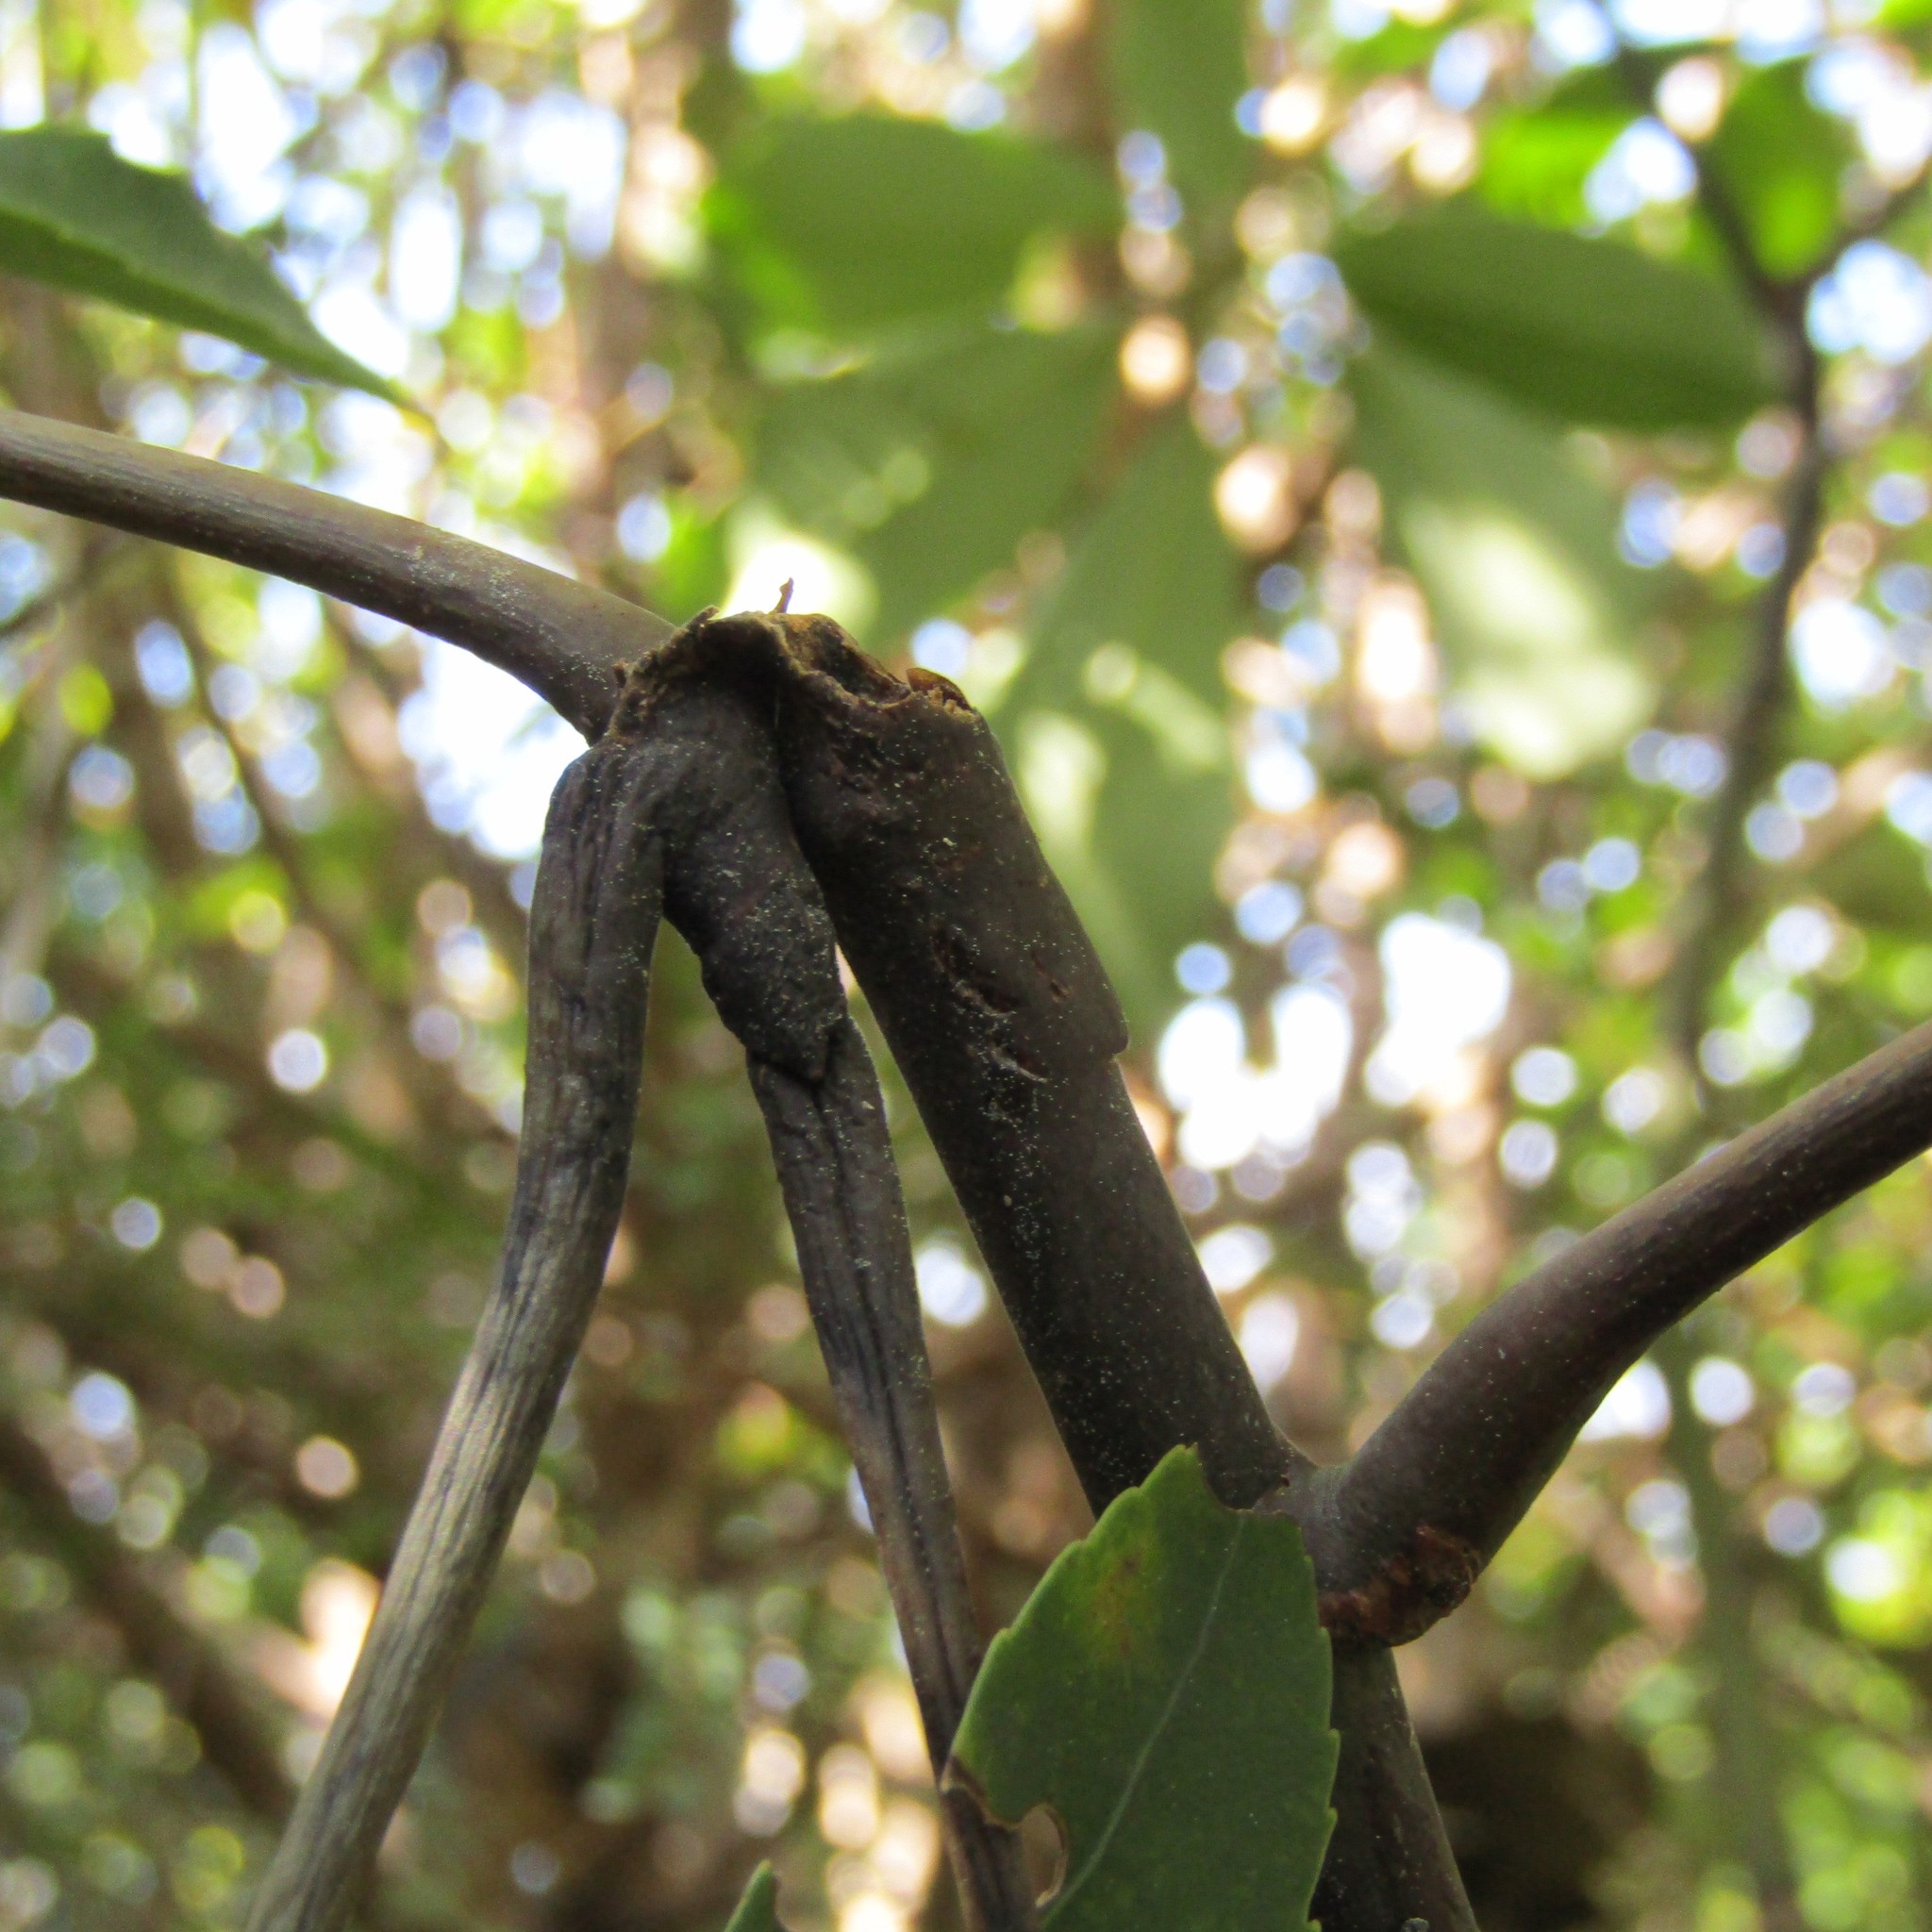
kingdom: Plantae
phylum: Tracheophyta
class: Magnoliopsida
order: Apiales
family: Araliaceae
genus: Neopanax
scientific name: Neopanax arboreus
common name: Five-fingers
